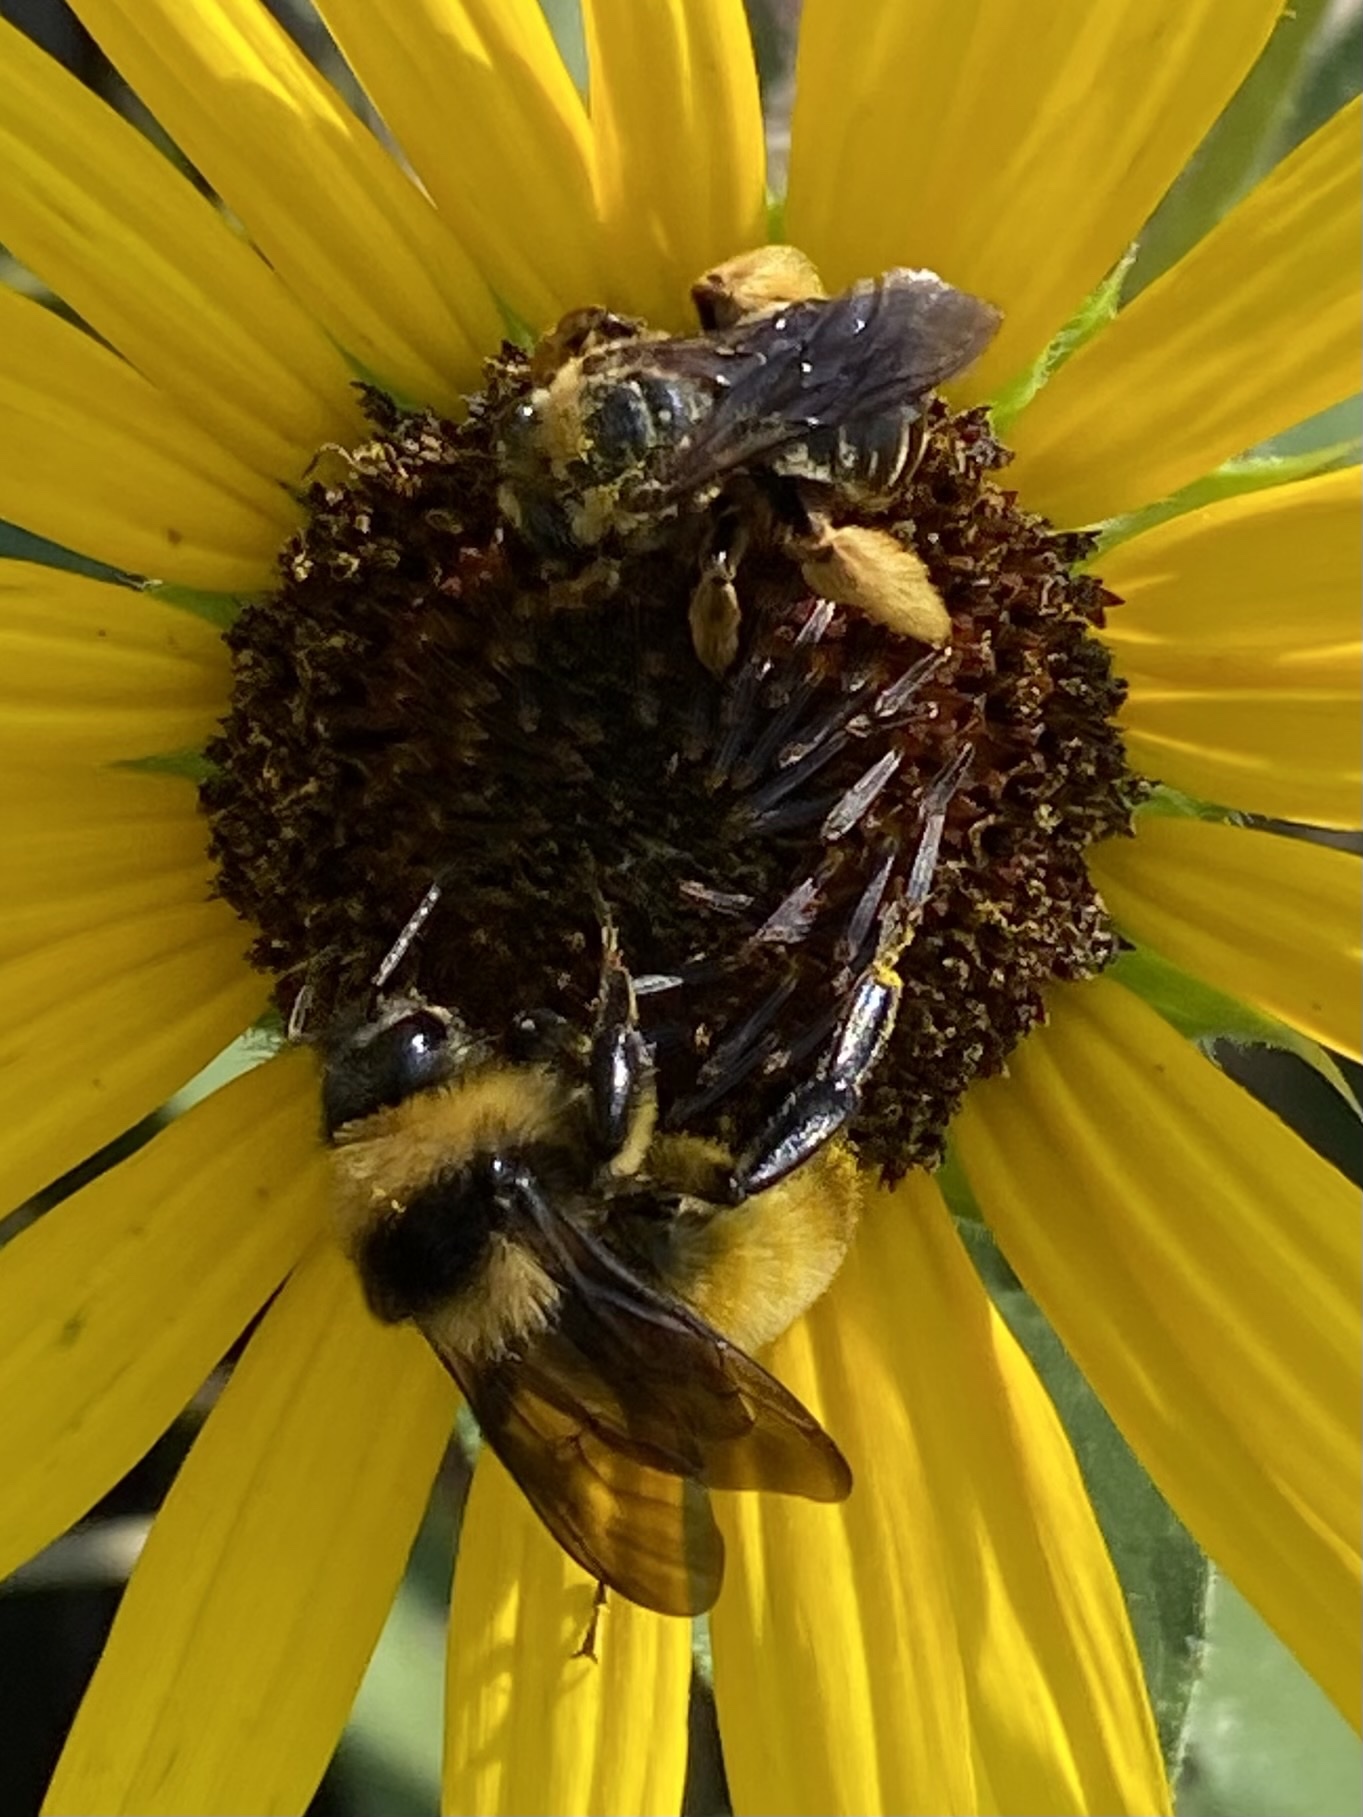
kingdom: Animalia
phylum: Arthropoda
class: Insecta
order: Hymenoptera
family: Apidae
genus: Svastra
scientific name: Svastra obliqua
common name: Oblique longhorn
